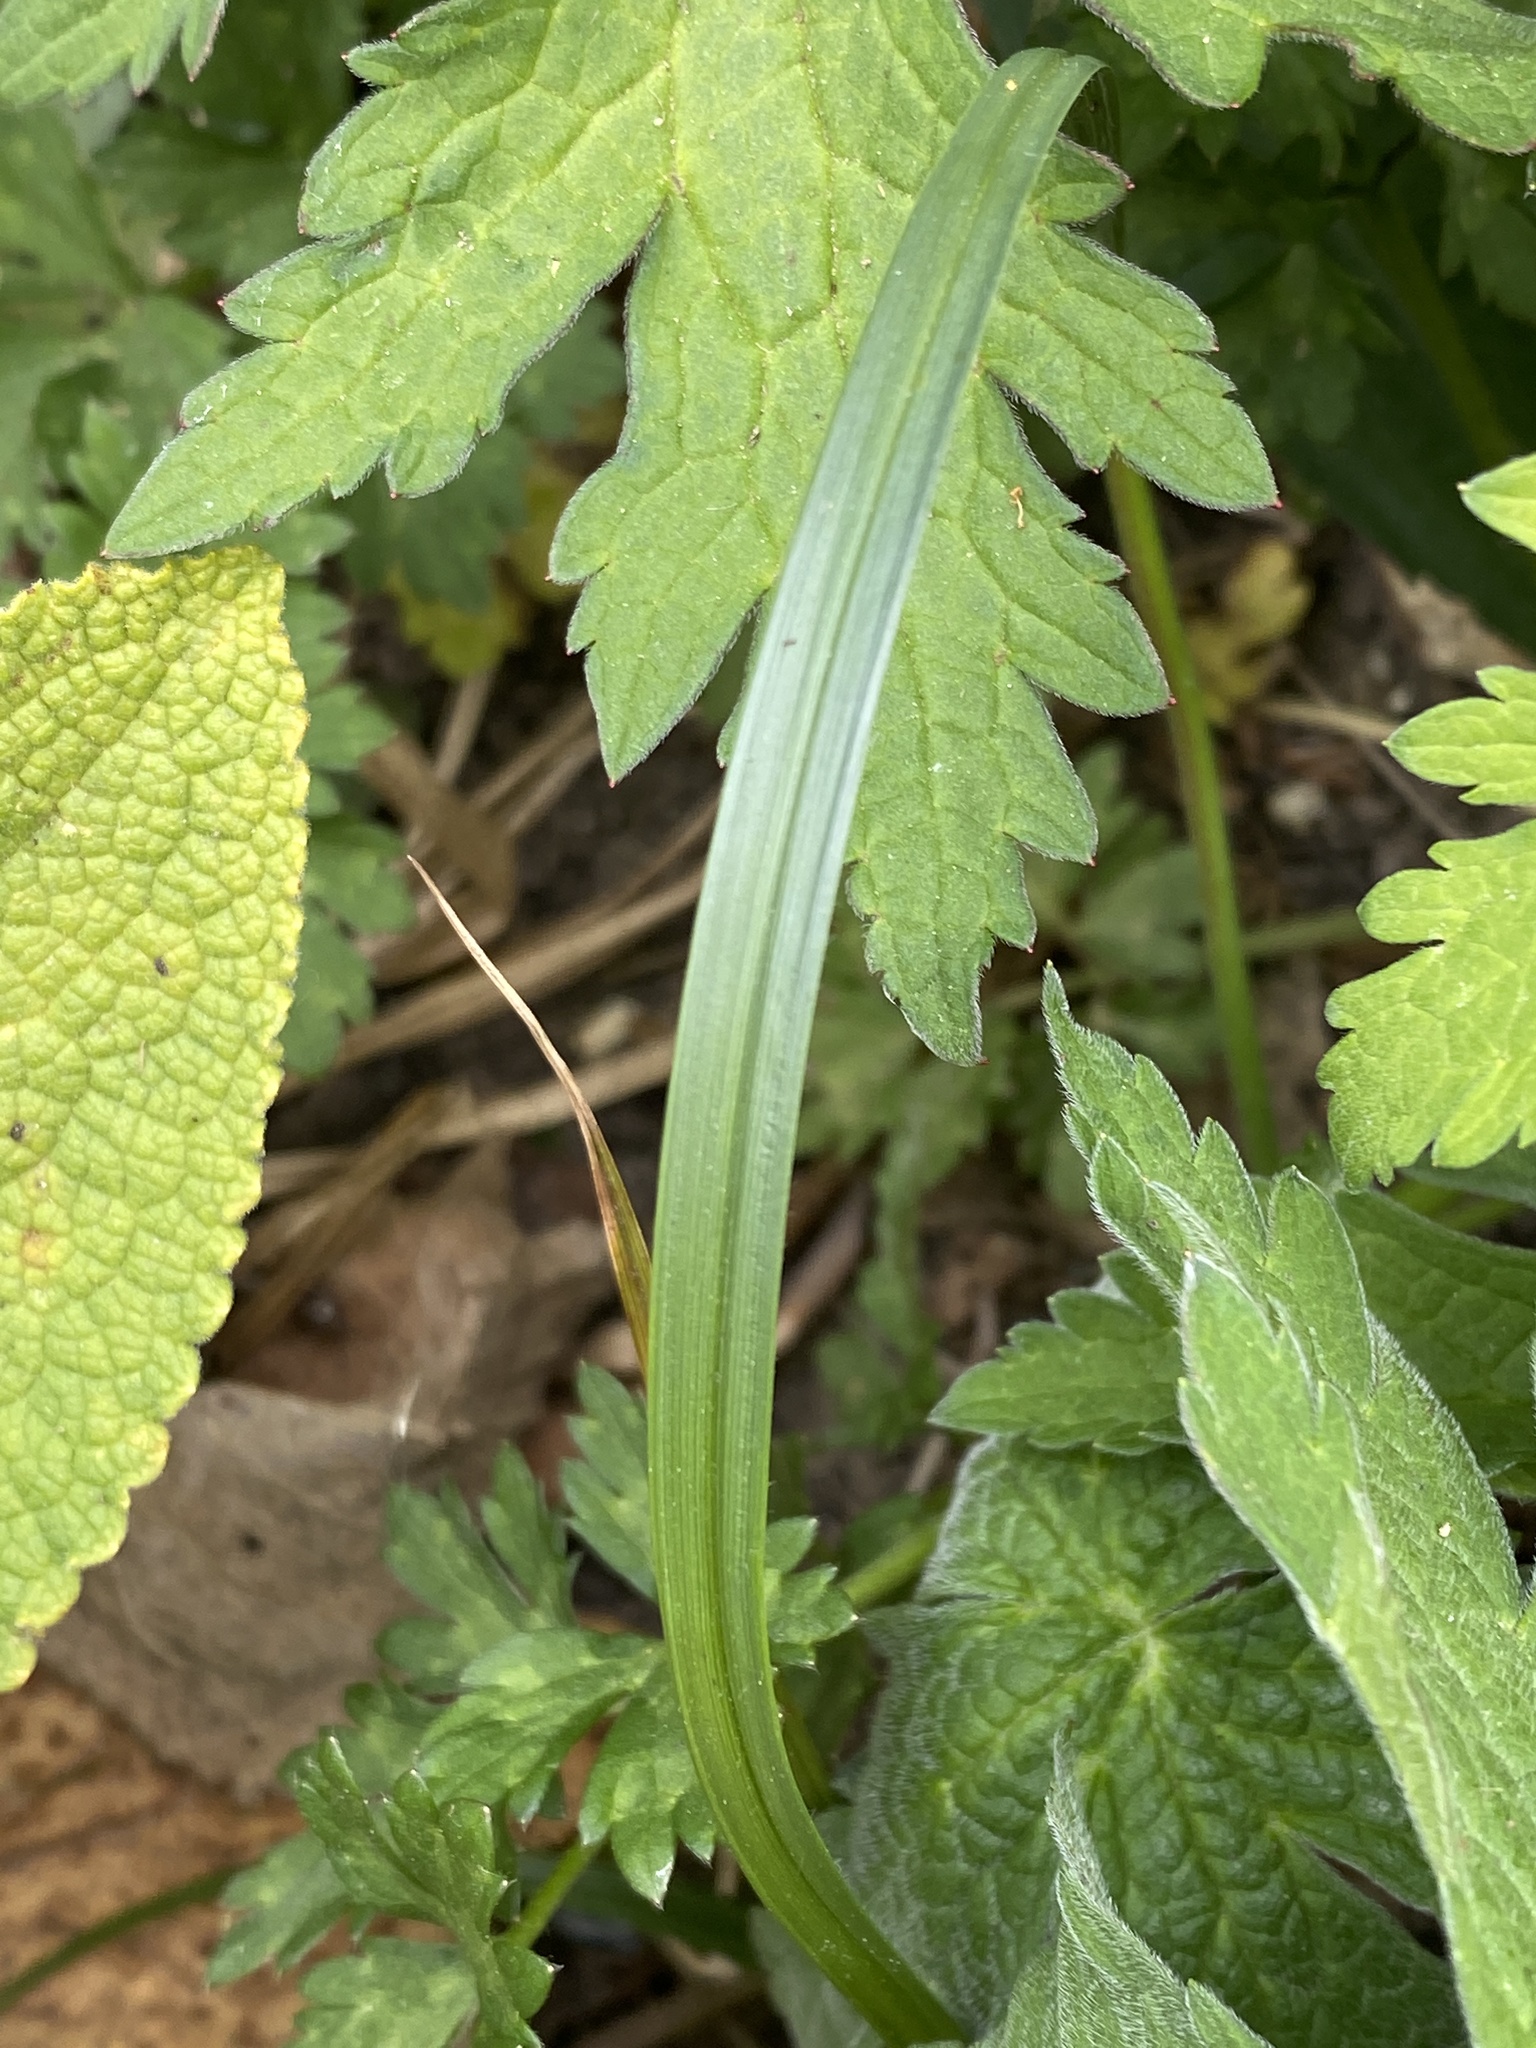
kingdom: Plantae
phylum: Tracheophyta
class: Liliopsida
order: Poales
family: Cyperaceae
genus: Carex
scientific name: Carex hirta
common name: Hairy sedge
